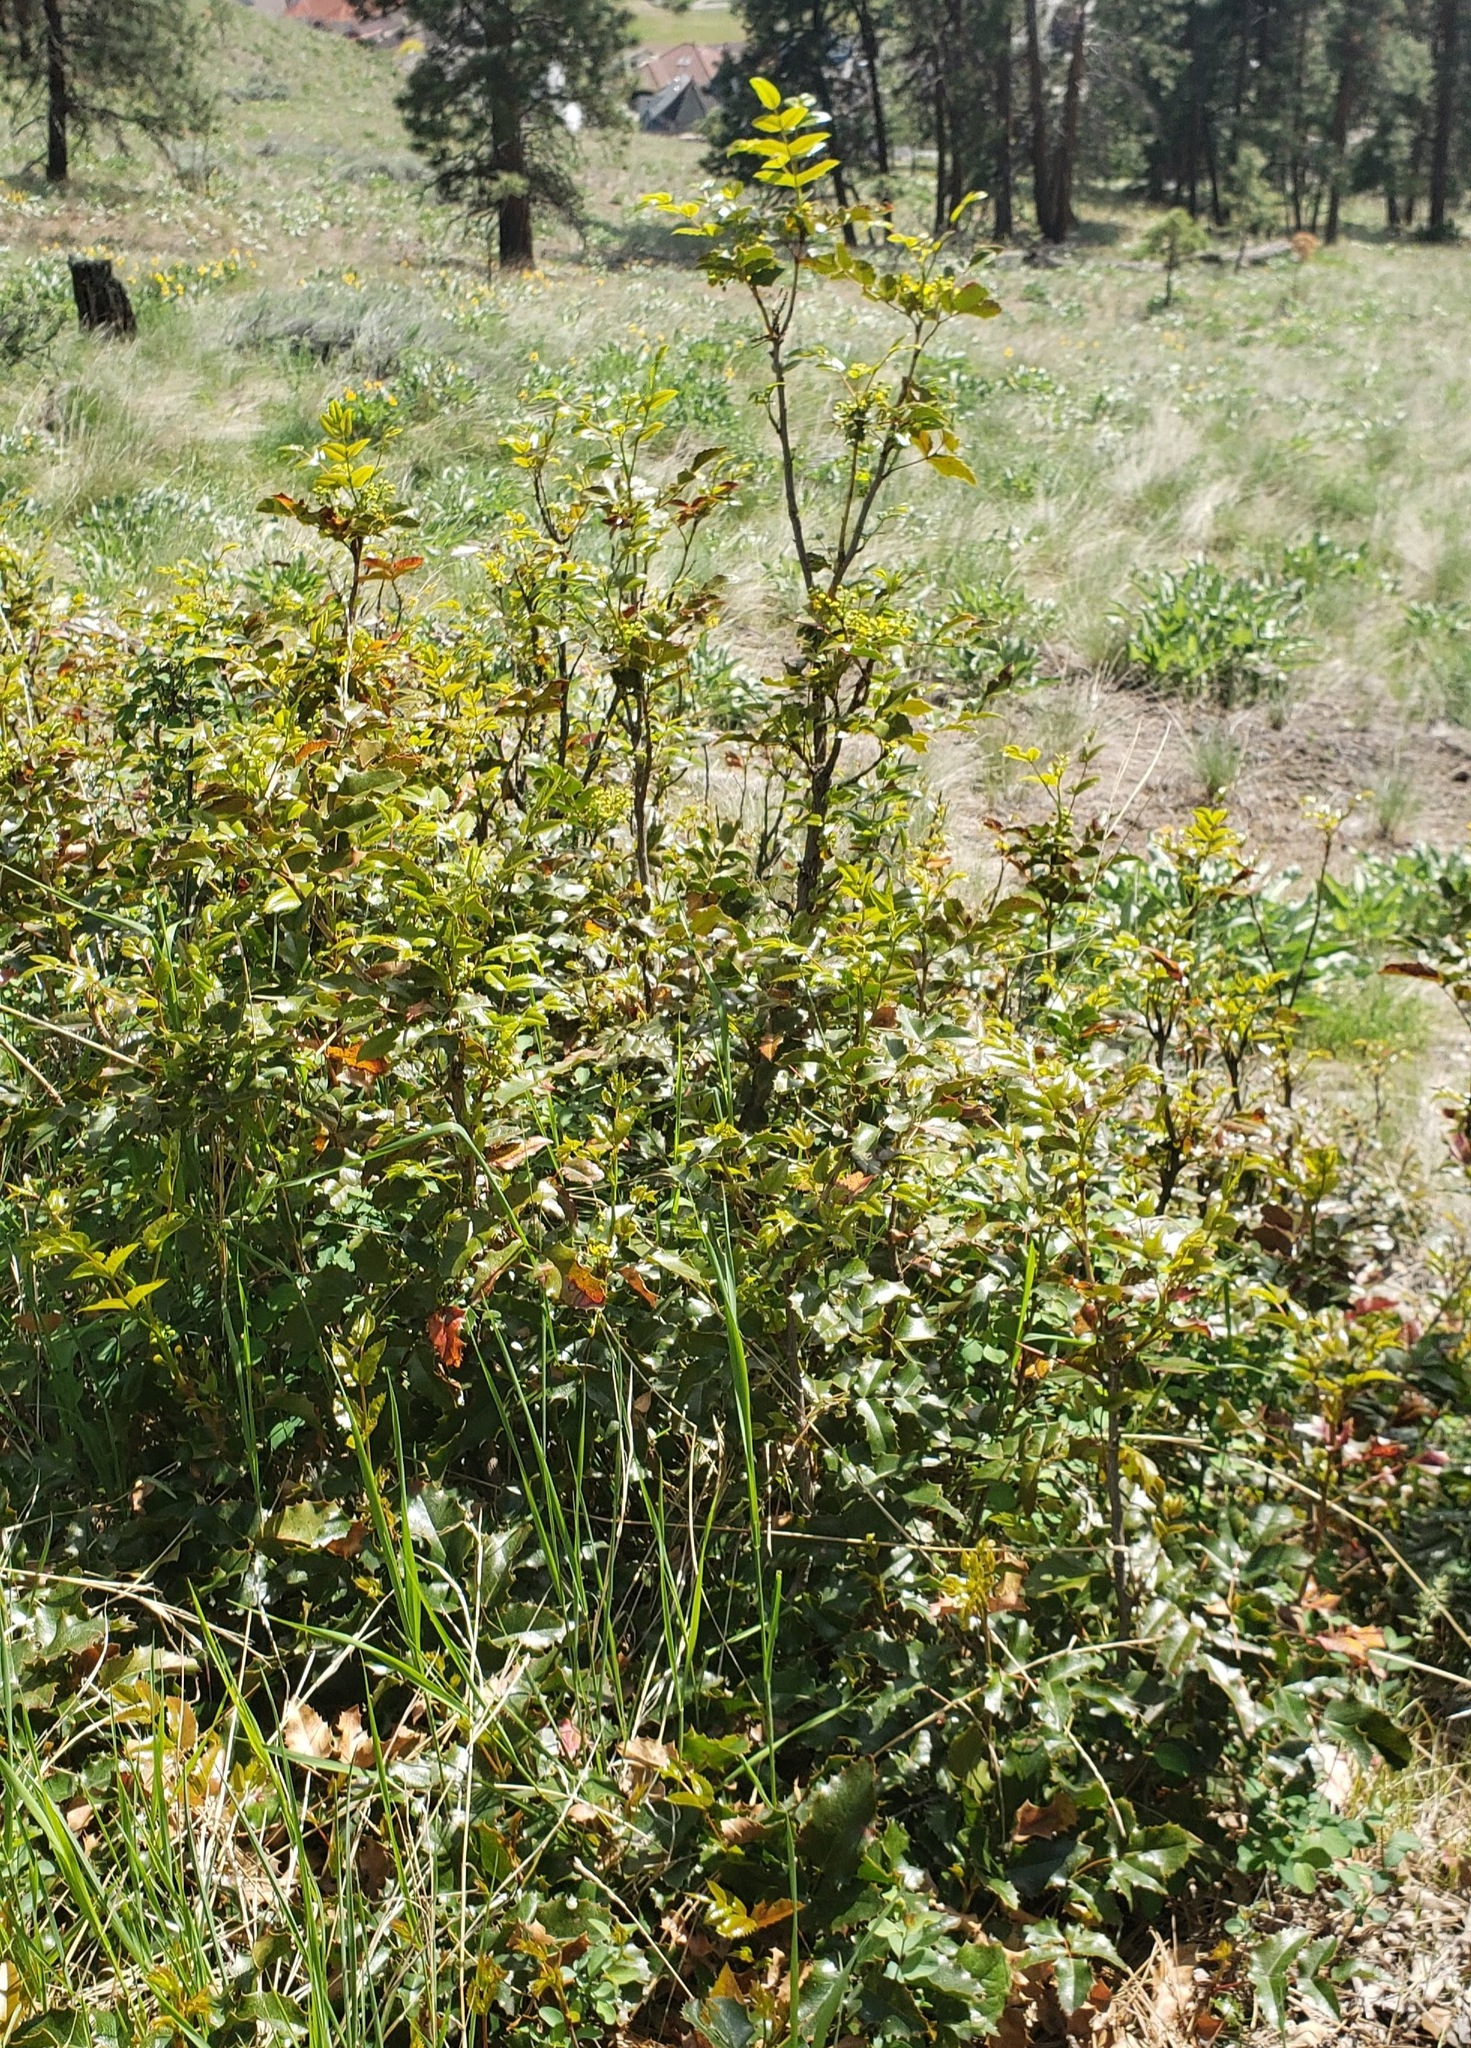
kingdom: Plantae
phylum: Tracheophyta
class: Magnoliopsida
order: Ranunculales
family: Berberidaceae
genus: Mahonia
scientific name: Mahonia aquifolium
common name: Oregon-grape
